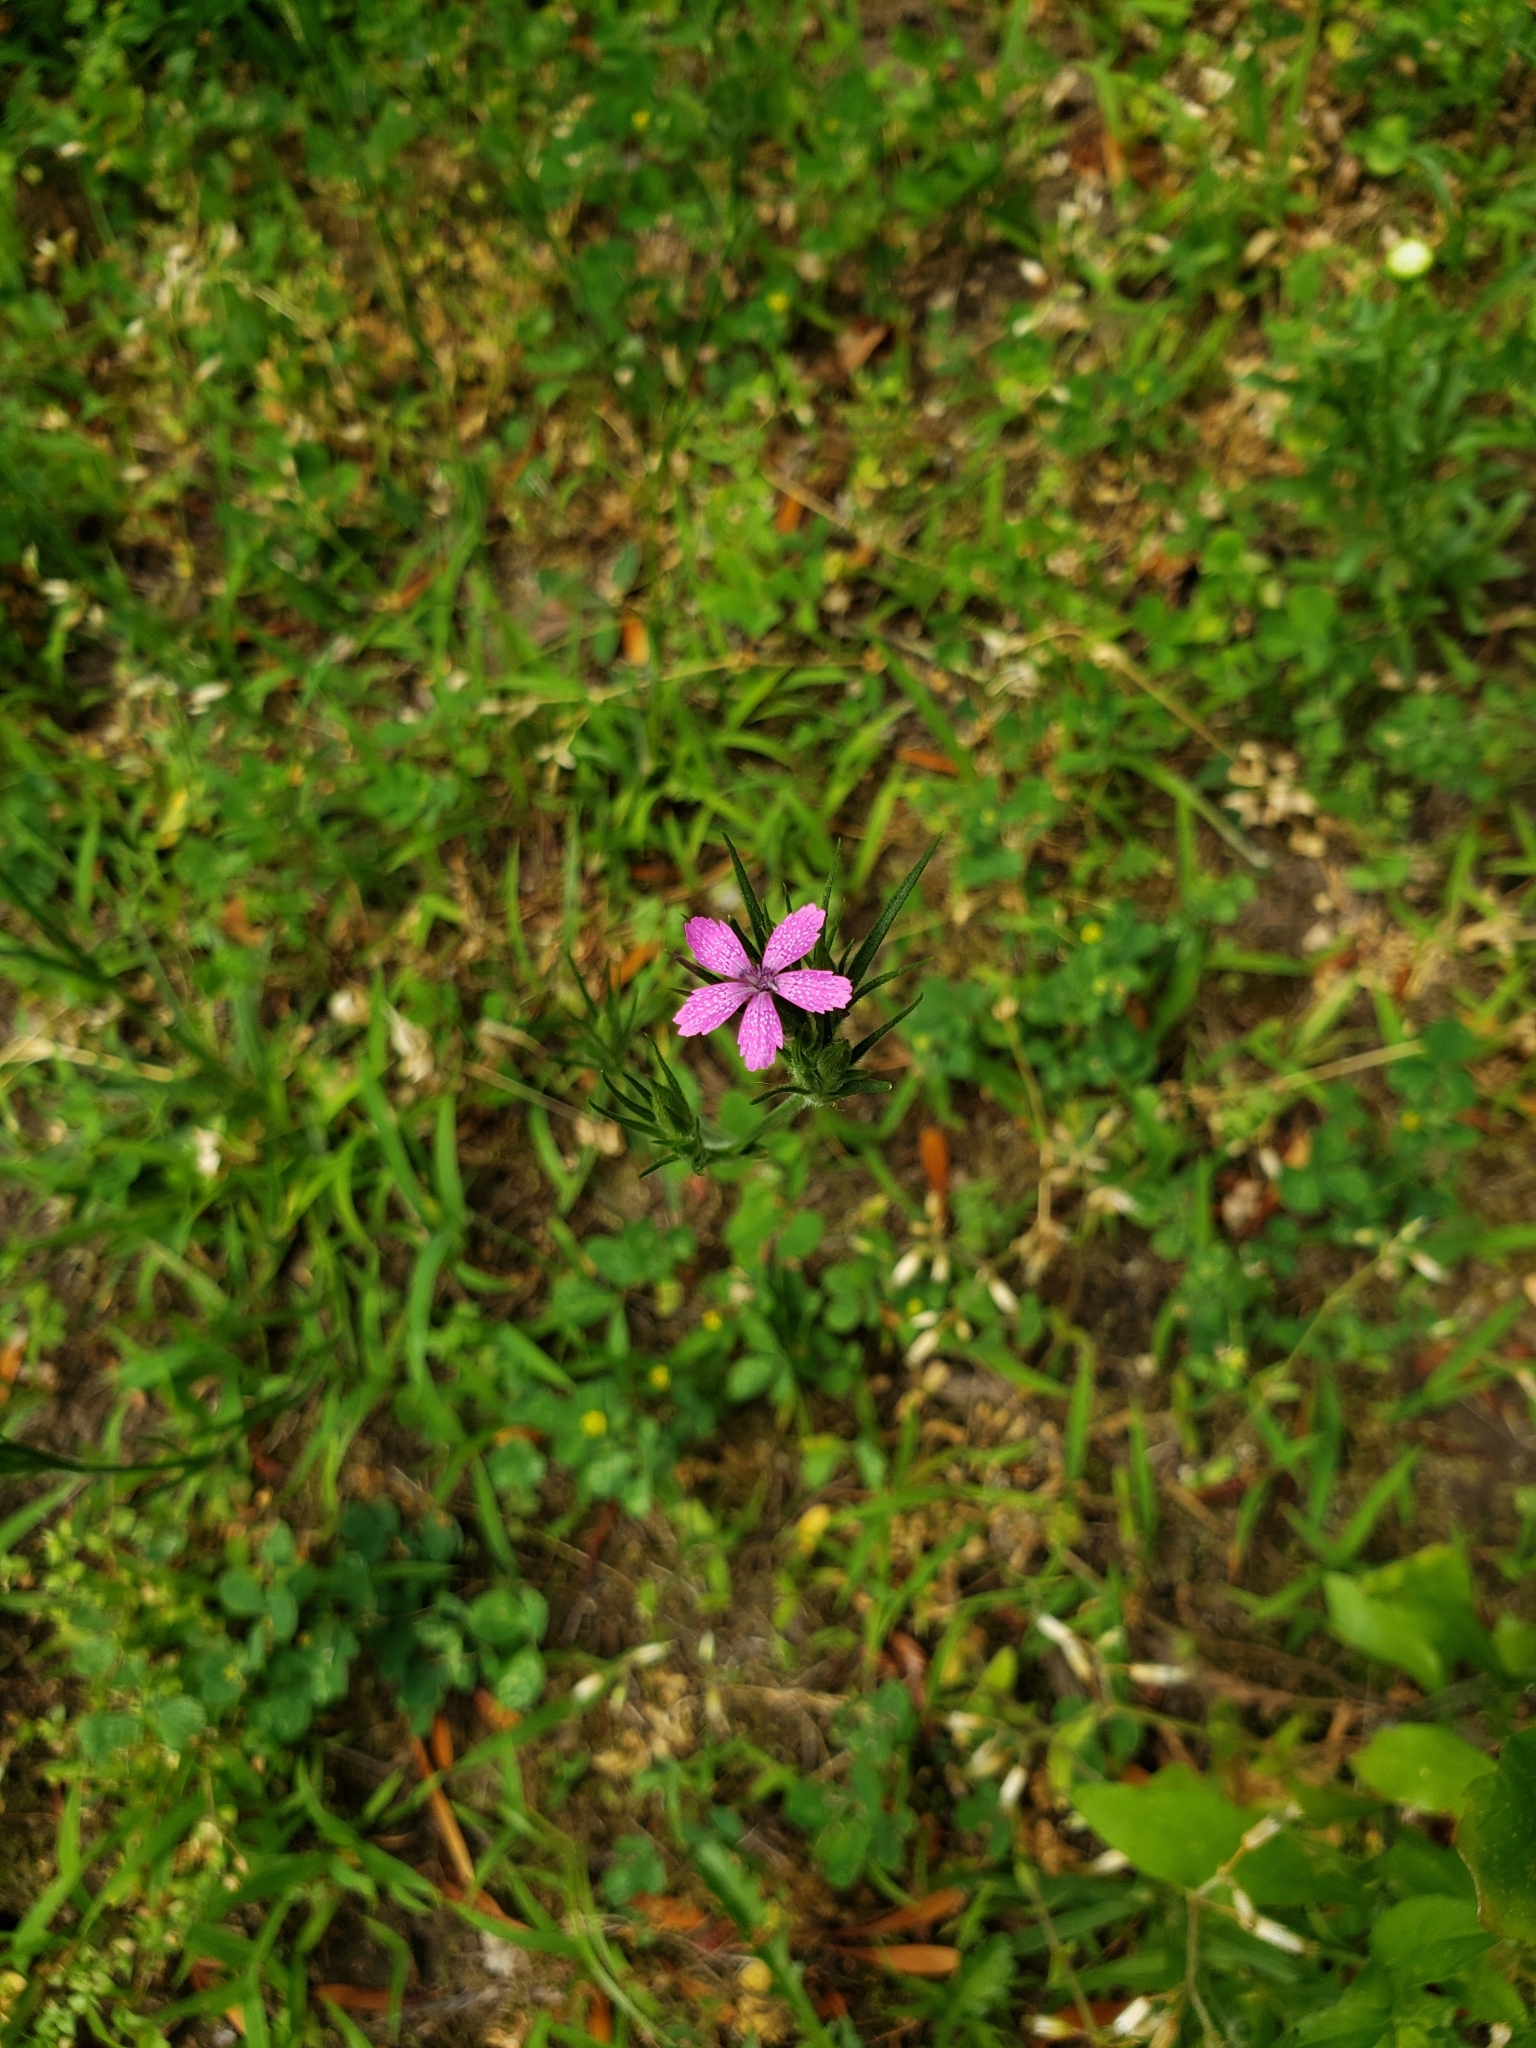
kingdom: Plantae
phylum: Tracheophyta
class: Magnoliopsida
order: Caryophyllales
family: Caryophyllaceae
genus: Dianthus
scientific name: Dianthus armeria
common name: Deptford pink
